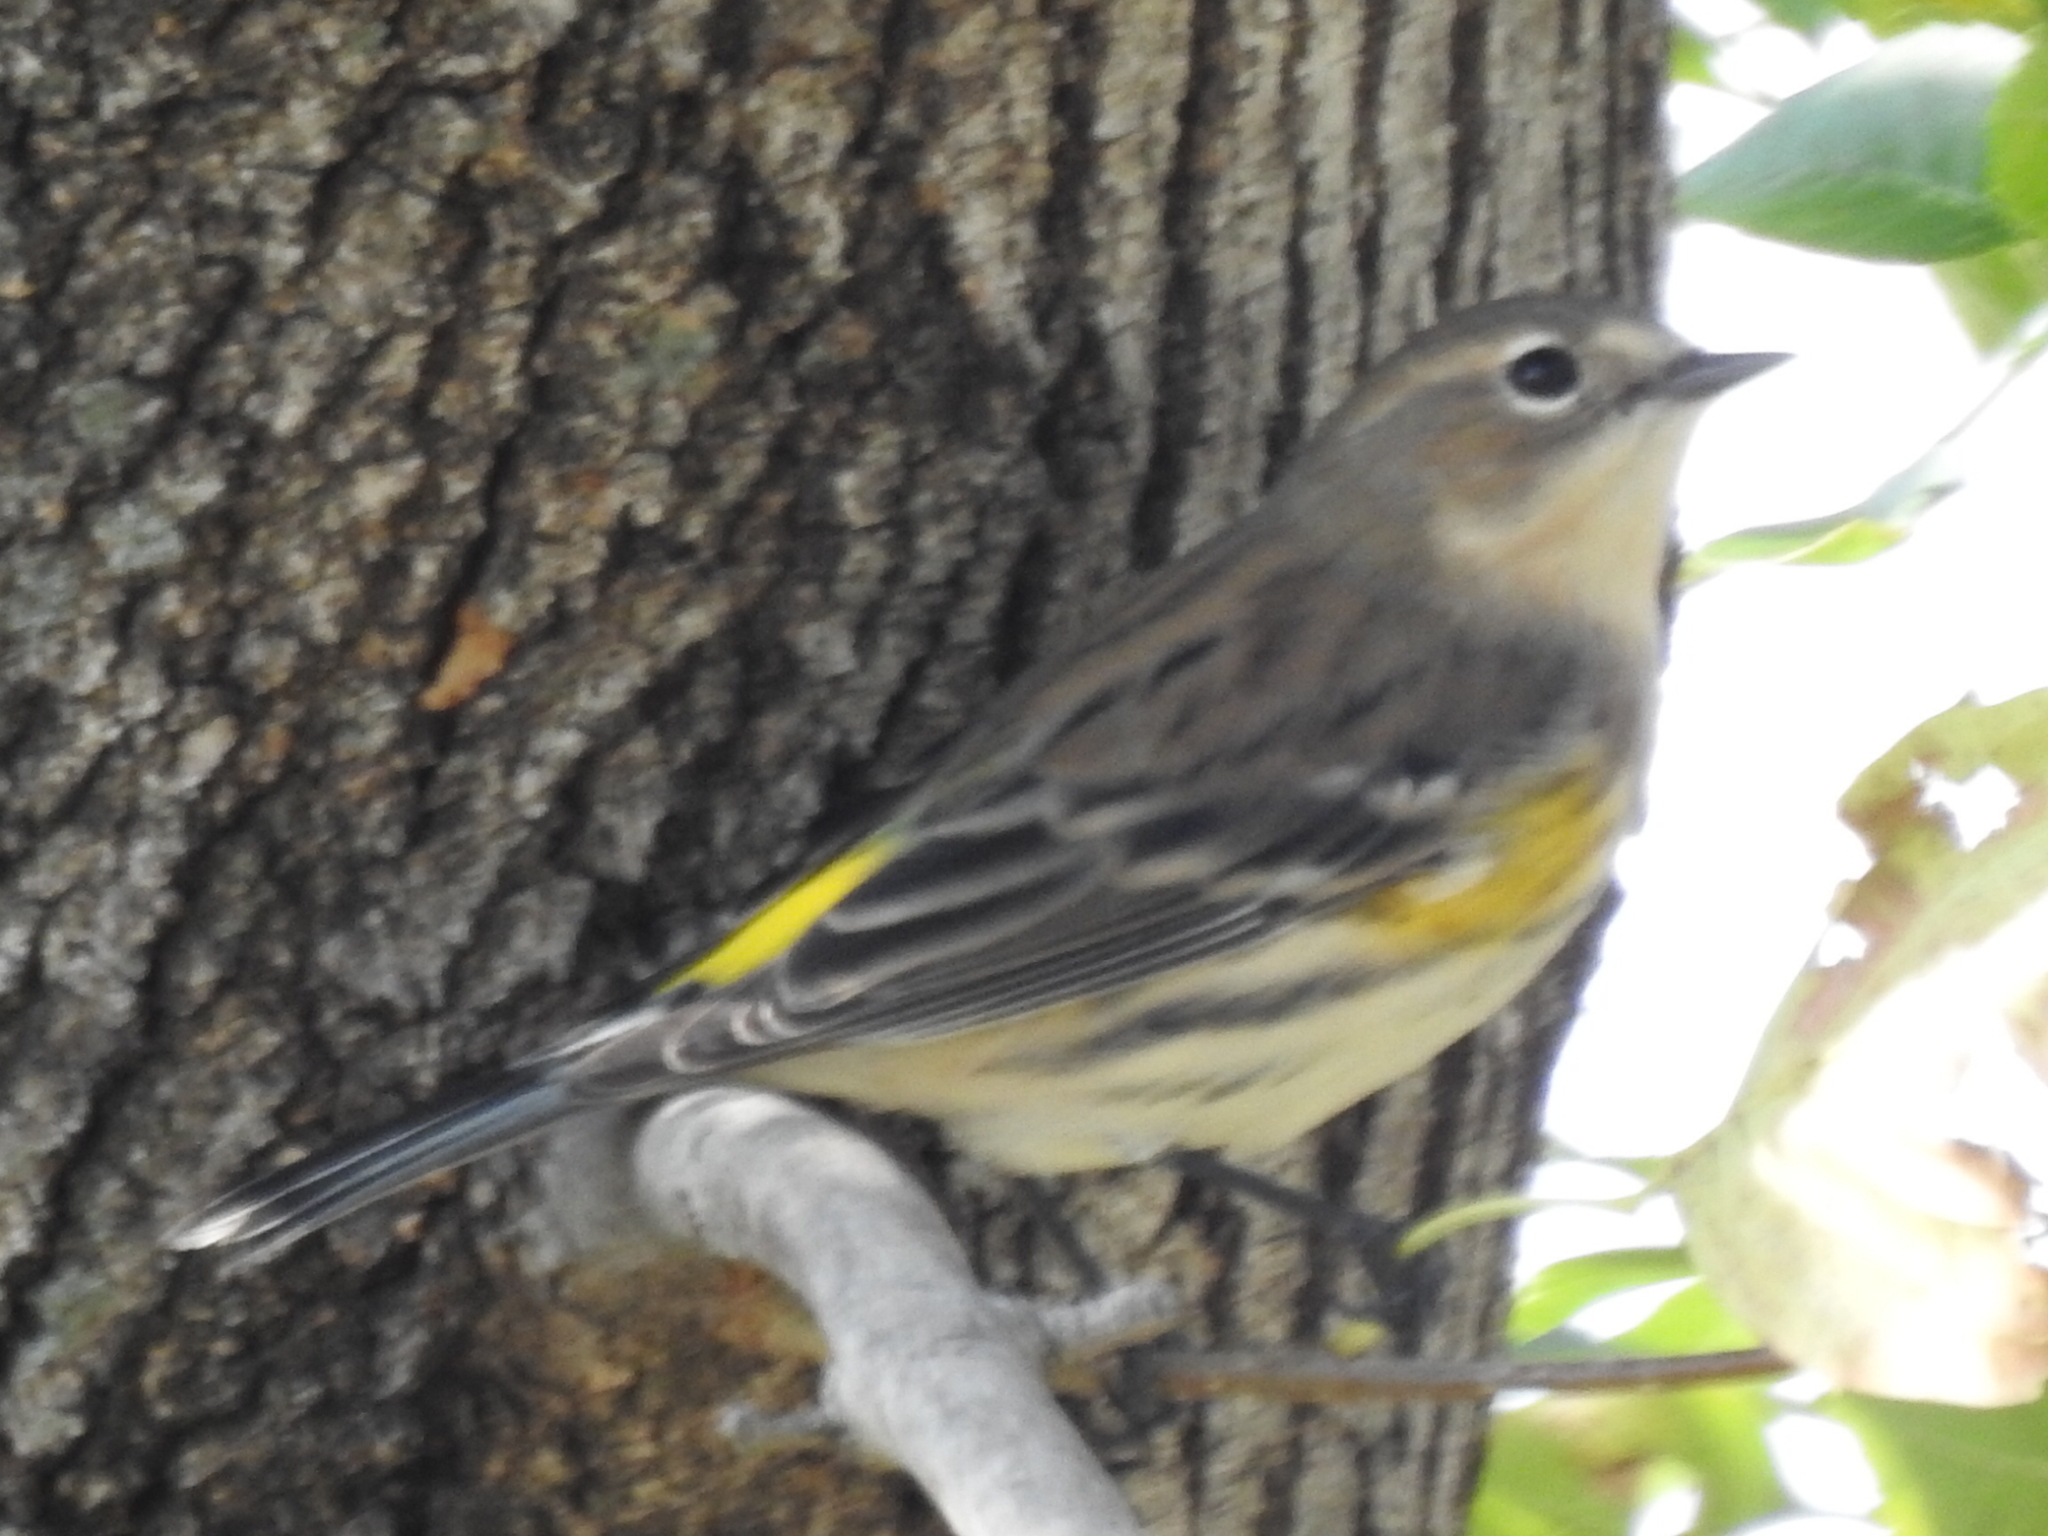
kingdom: Animalia
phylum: Chordata
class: Aves
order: Passeriformes
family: Parulidae
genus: Setophaga
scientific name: Setophaga coronata
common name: Myrtle warbler
